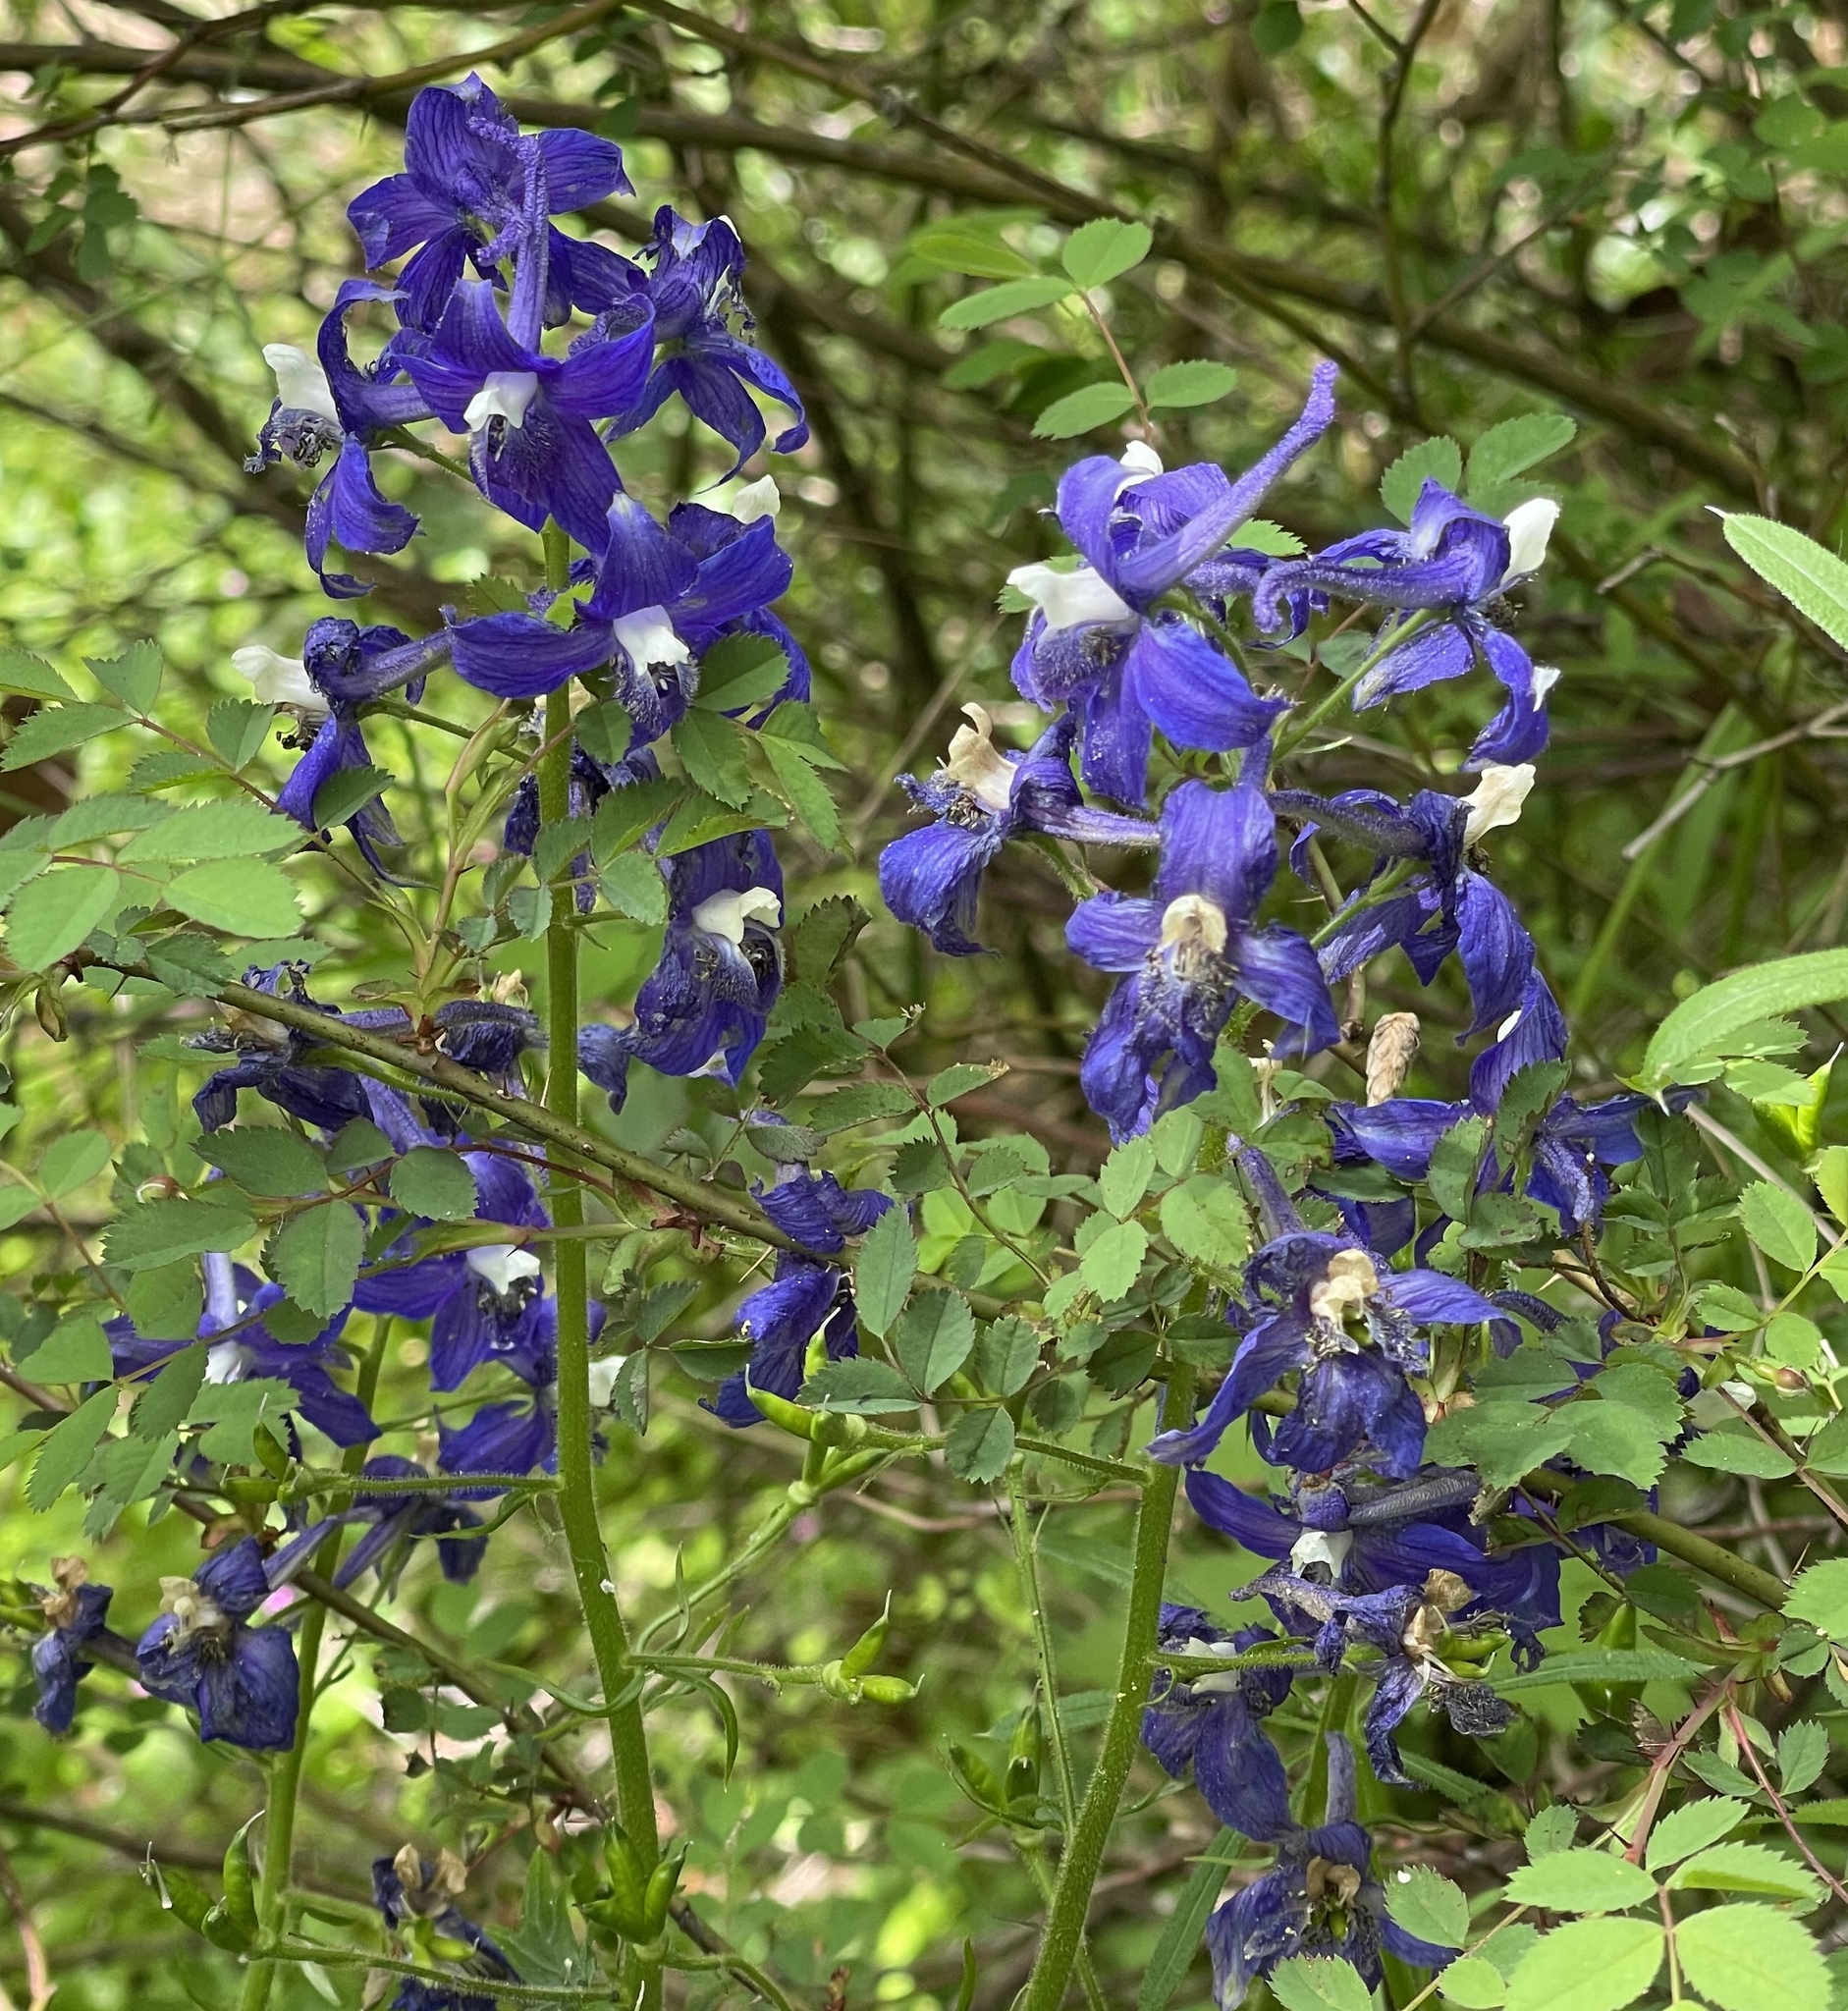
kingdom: Plantae
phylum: Tracheophyta
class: Magnoliopsida
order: Ranunculales
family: Ranunculaceae
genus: Delphinium
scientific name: Delphinium trolliifolium
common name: Cow-poison
